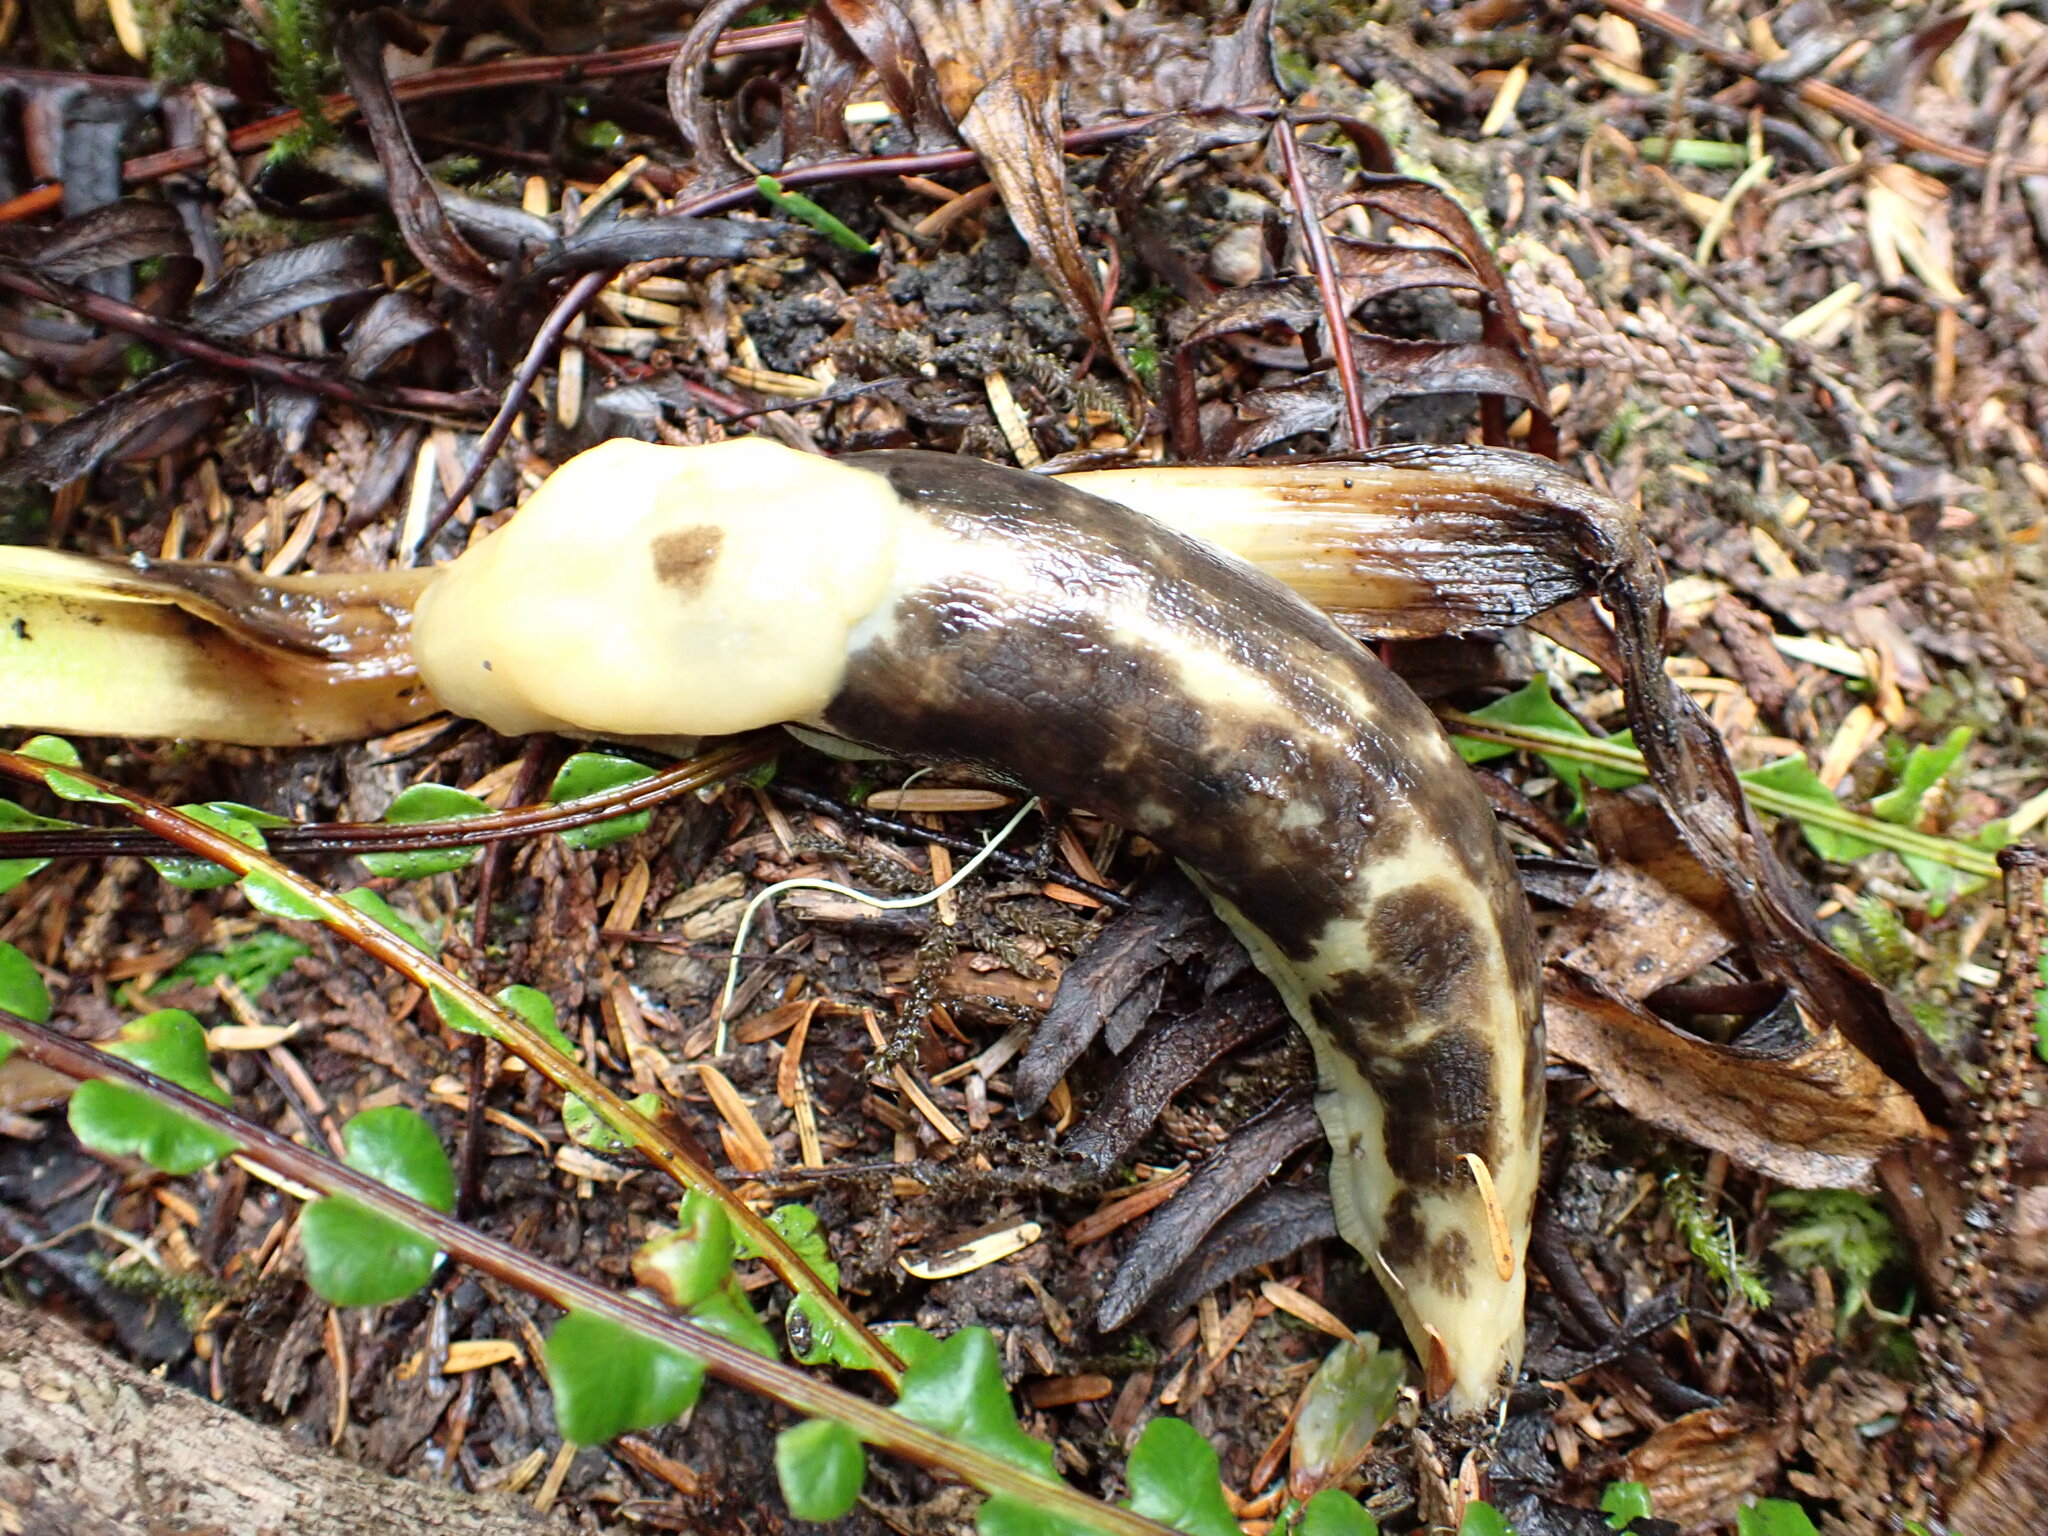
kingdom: Animalia
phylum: Mollusca
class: Gastropoda
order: Stylommatophora
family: Ariolimacidae
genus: Ariolimax
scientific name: Ariolimax columbianus
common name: Pacific banana slug
